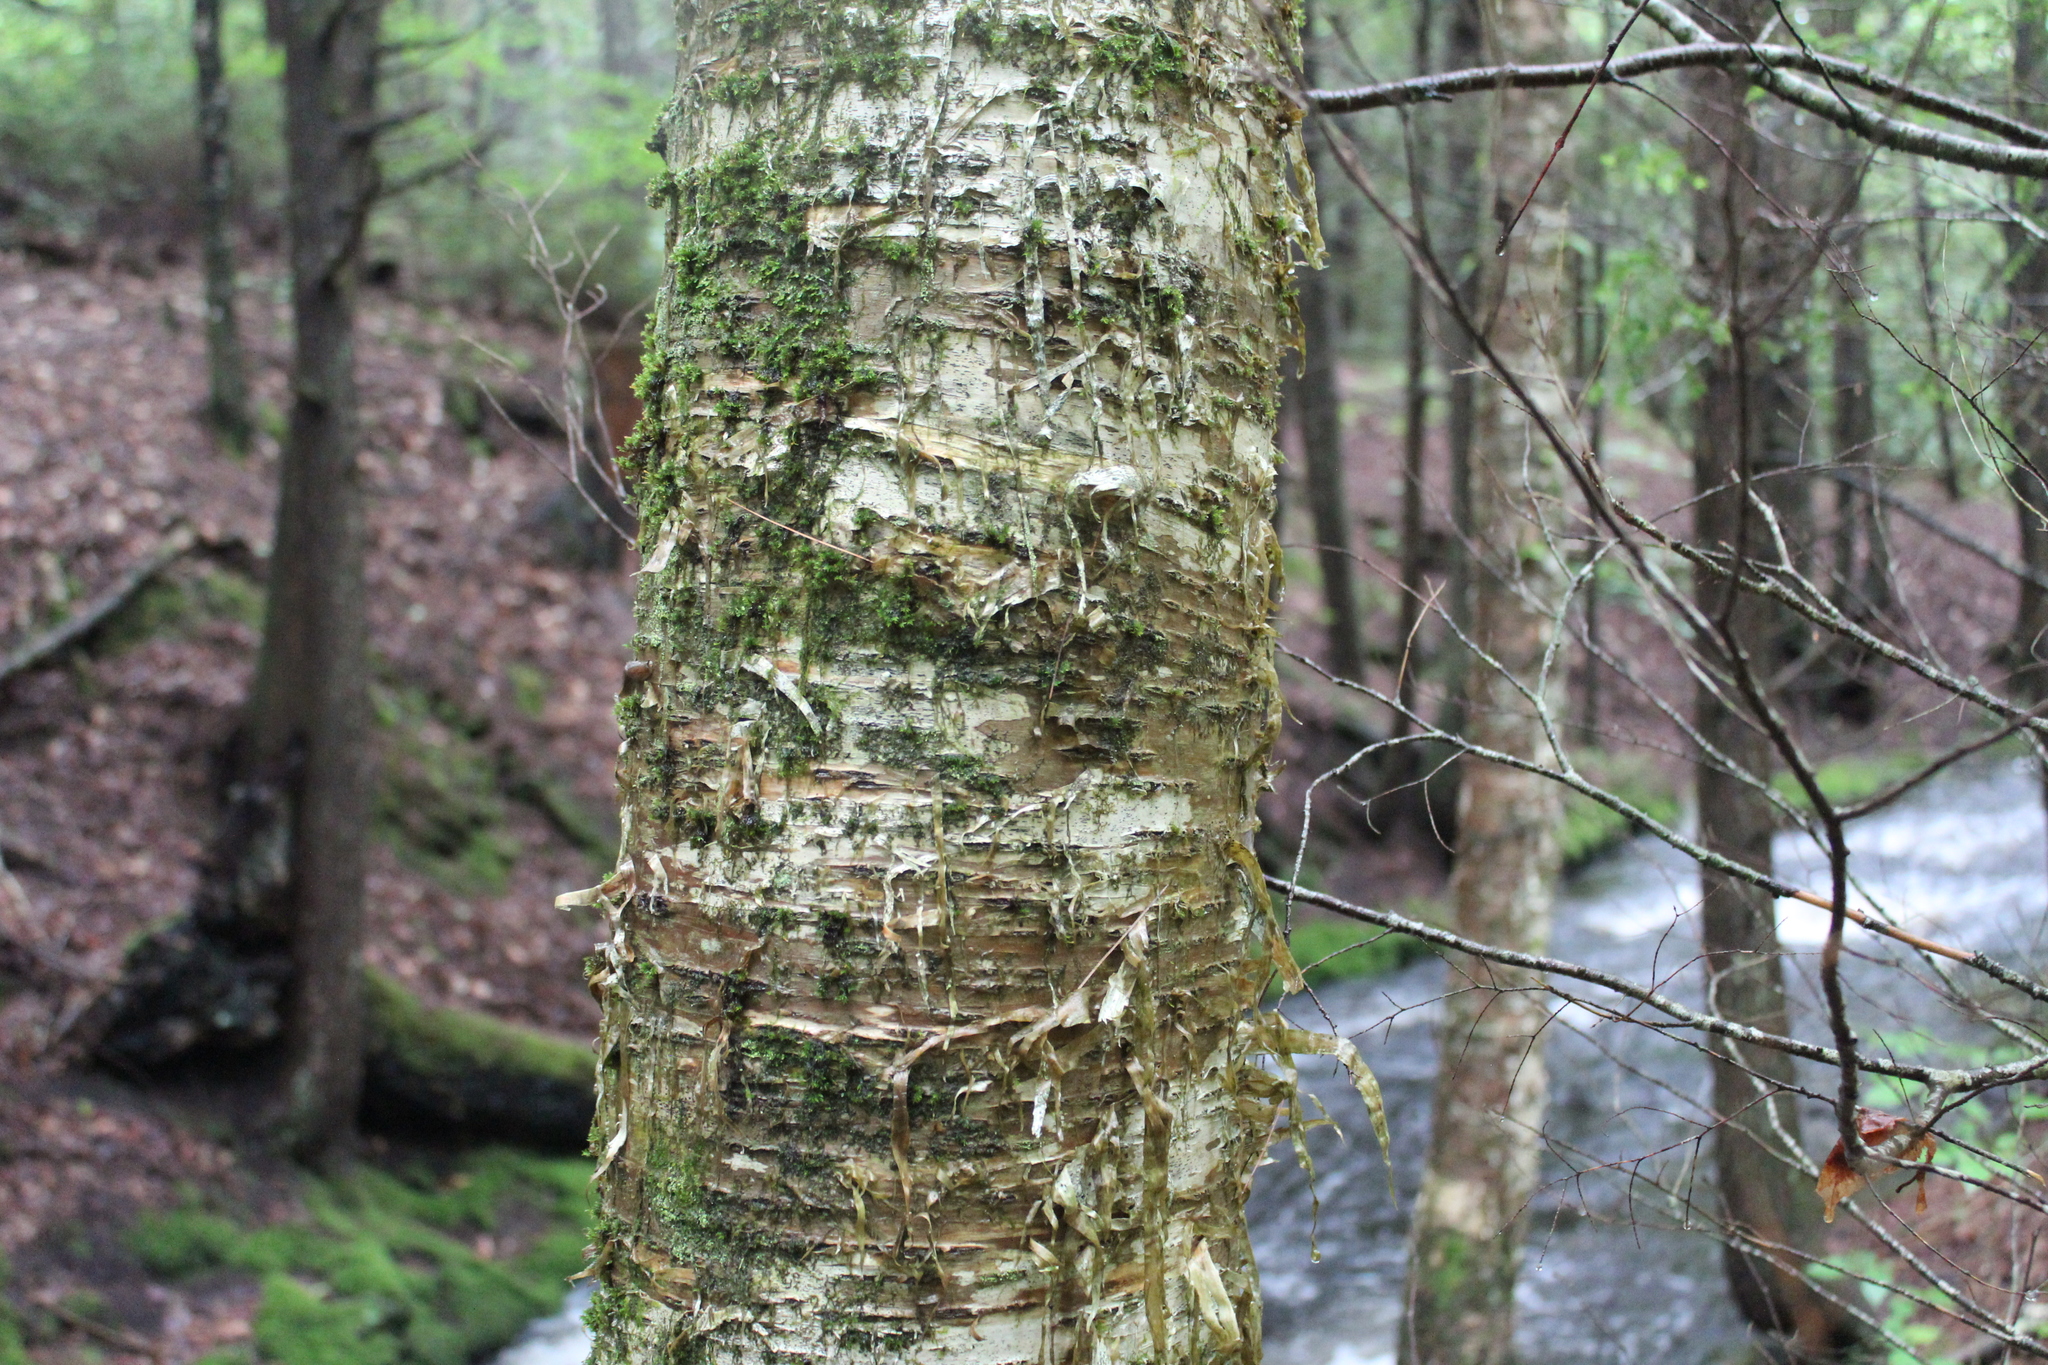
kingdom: Plantae
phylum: Tracheophyta
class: Magnoliopsida
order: Fagales
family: Betulaceae
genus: Betula
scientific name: Betula alleghaniensis
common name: Yellow birch
